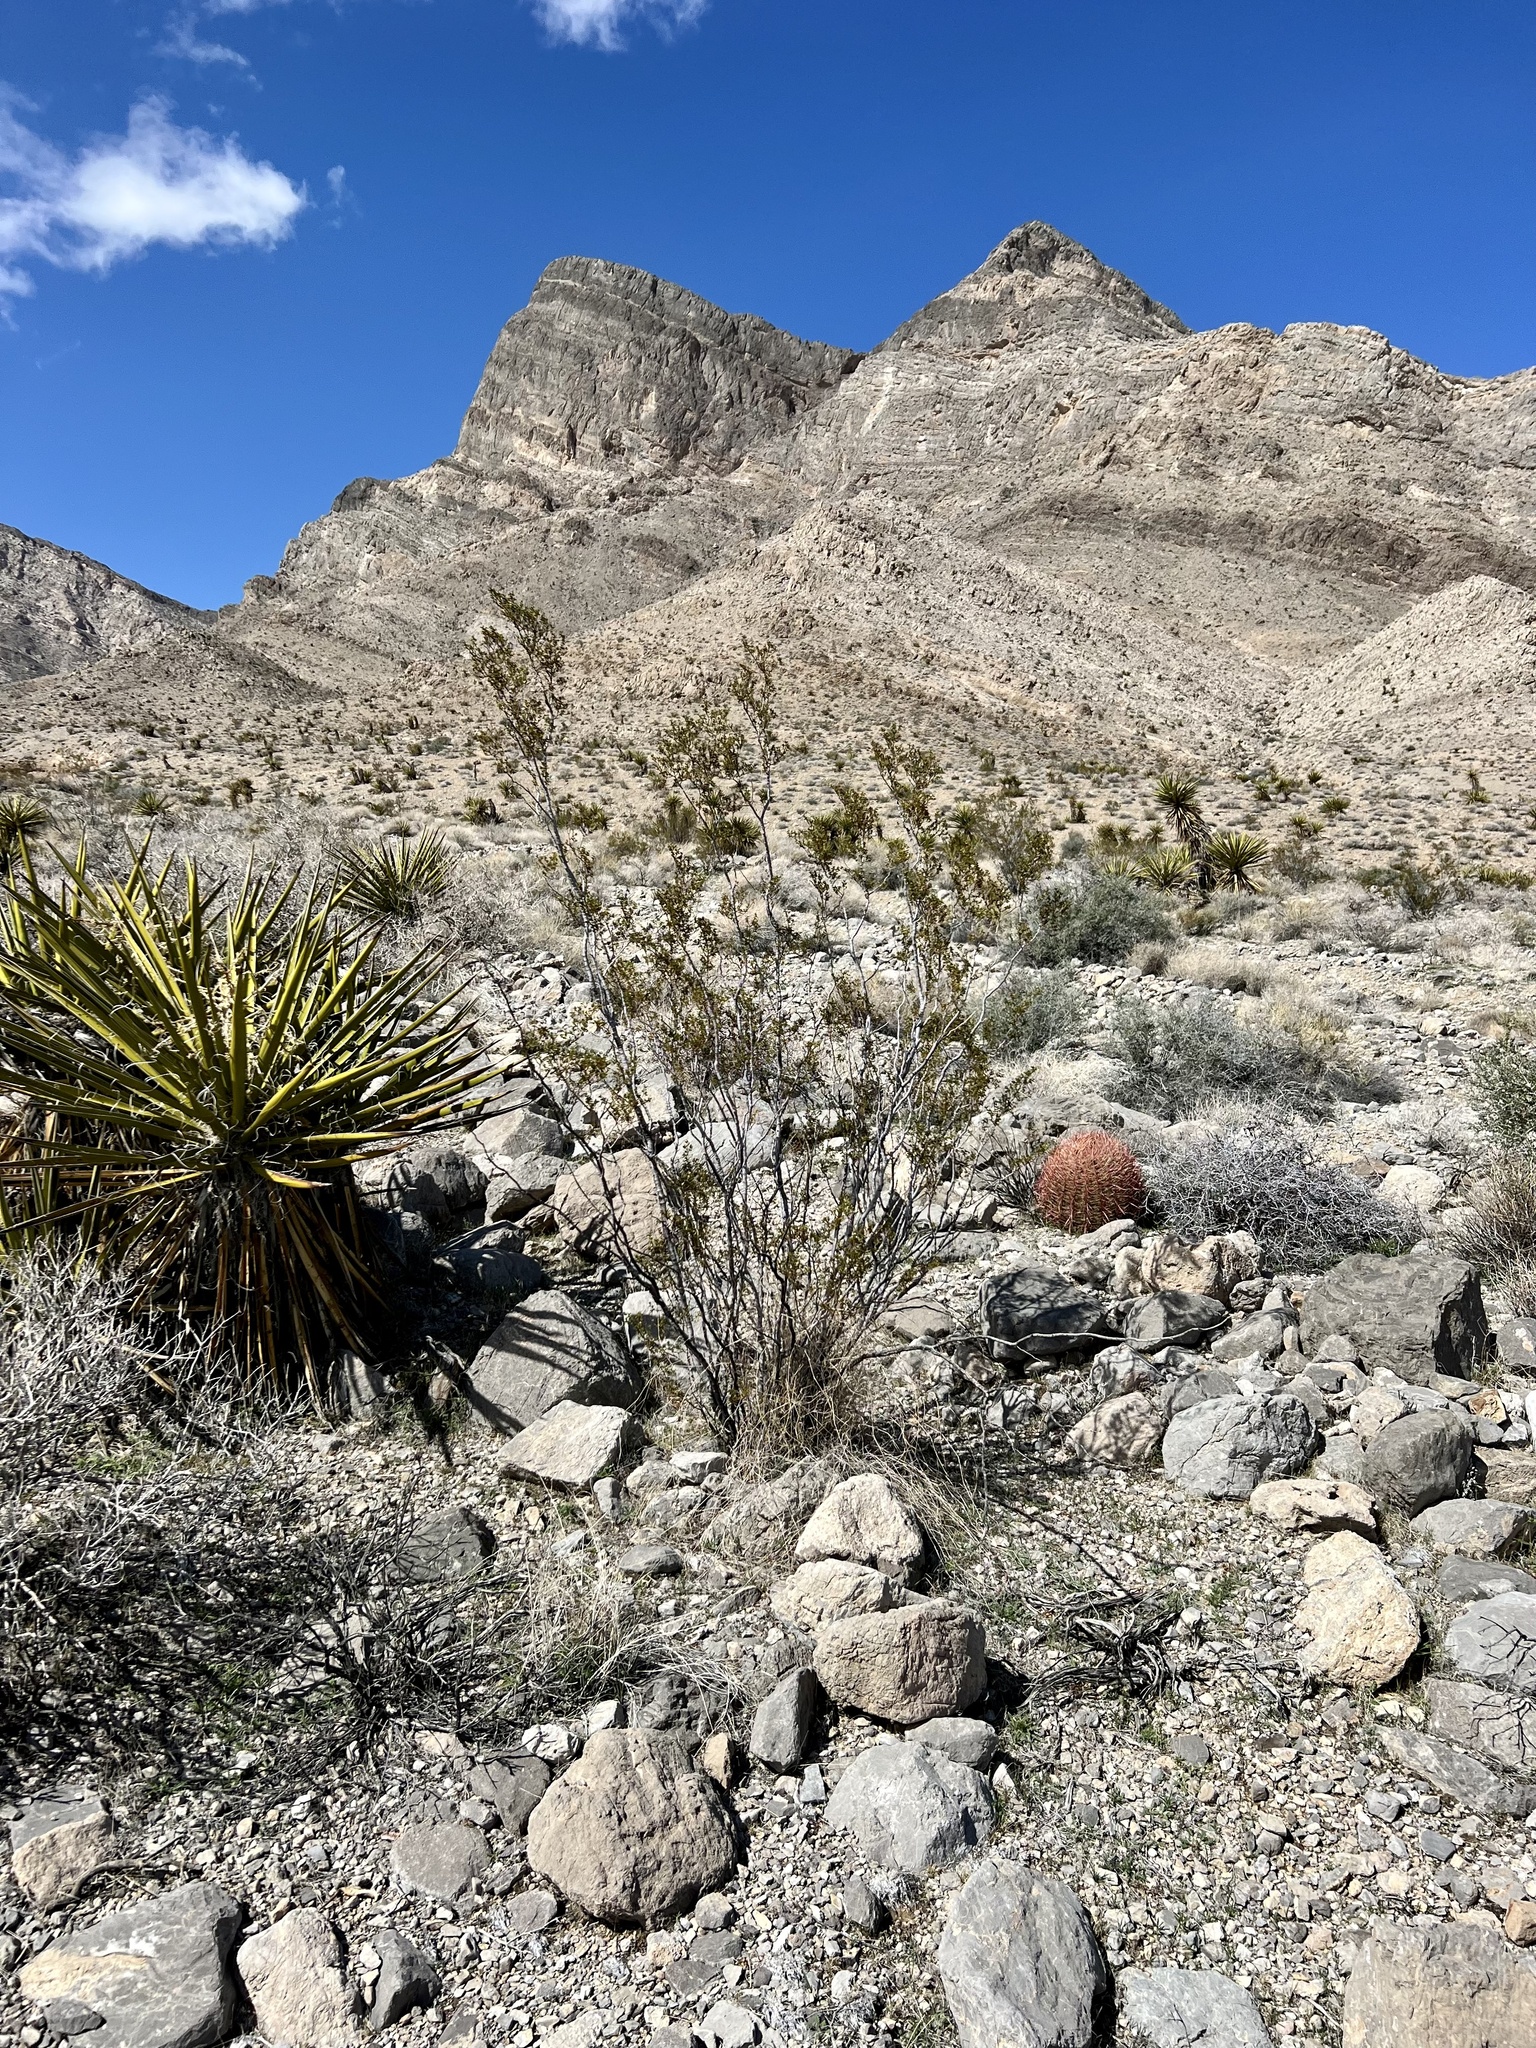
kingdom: Plantae
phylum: Tracheophyta
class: Magnoliopsida
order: Zygophyllales
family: Zygophyllaceae
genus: Larrea
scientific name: Larrea tridentata
